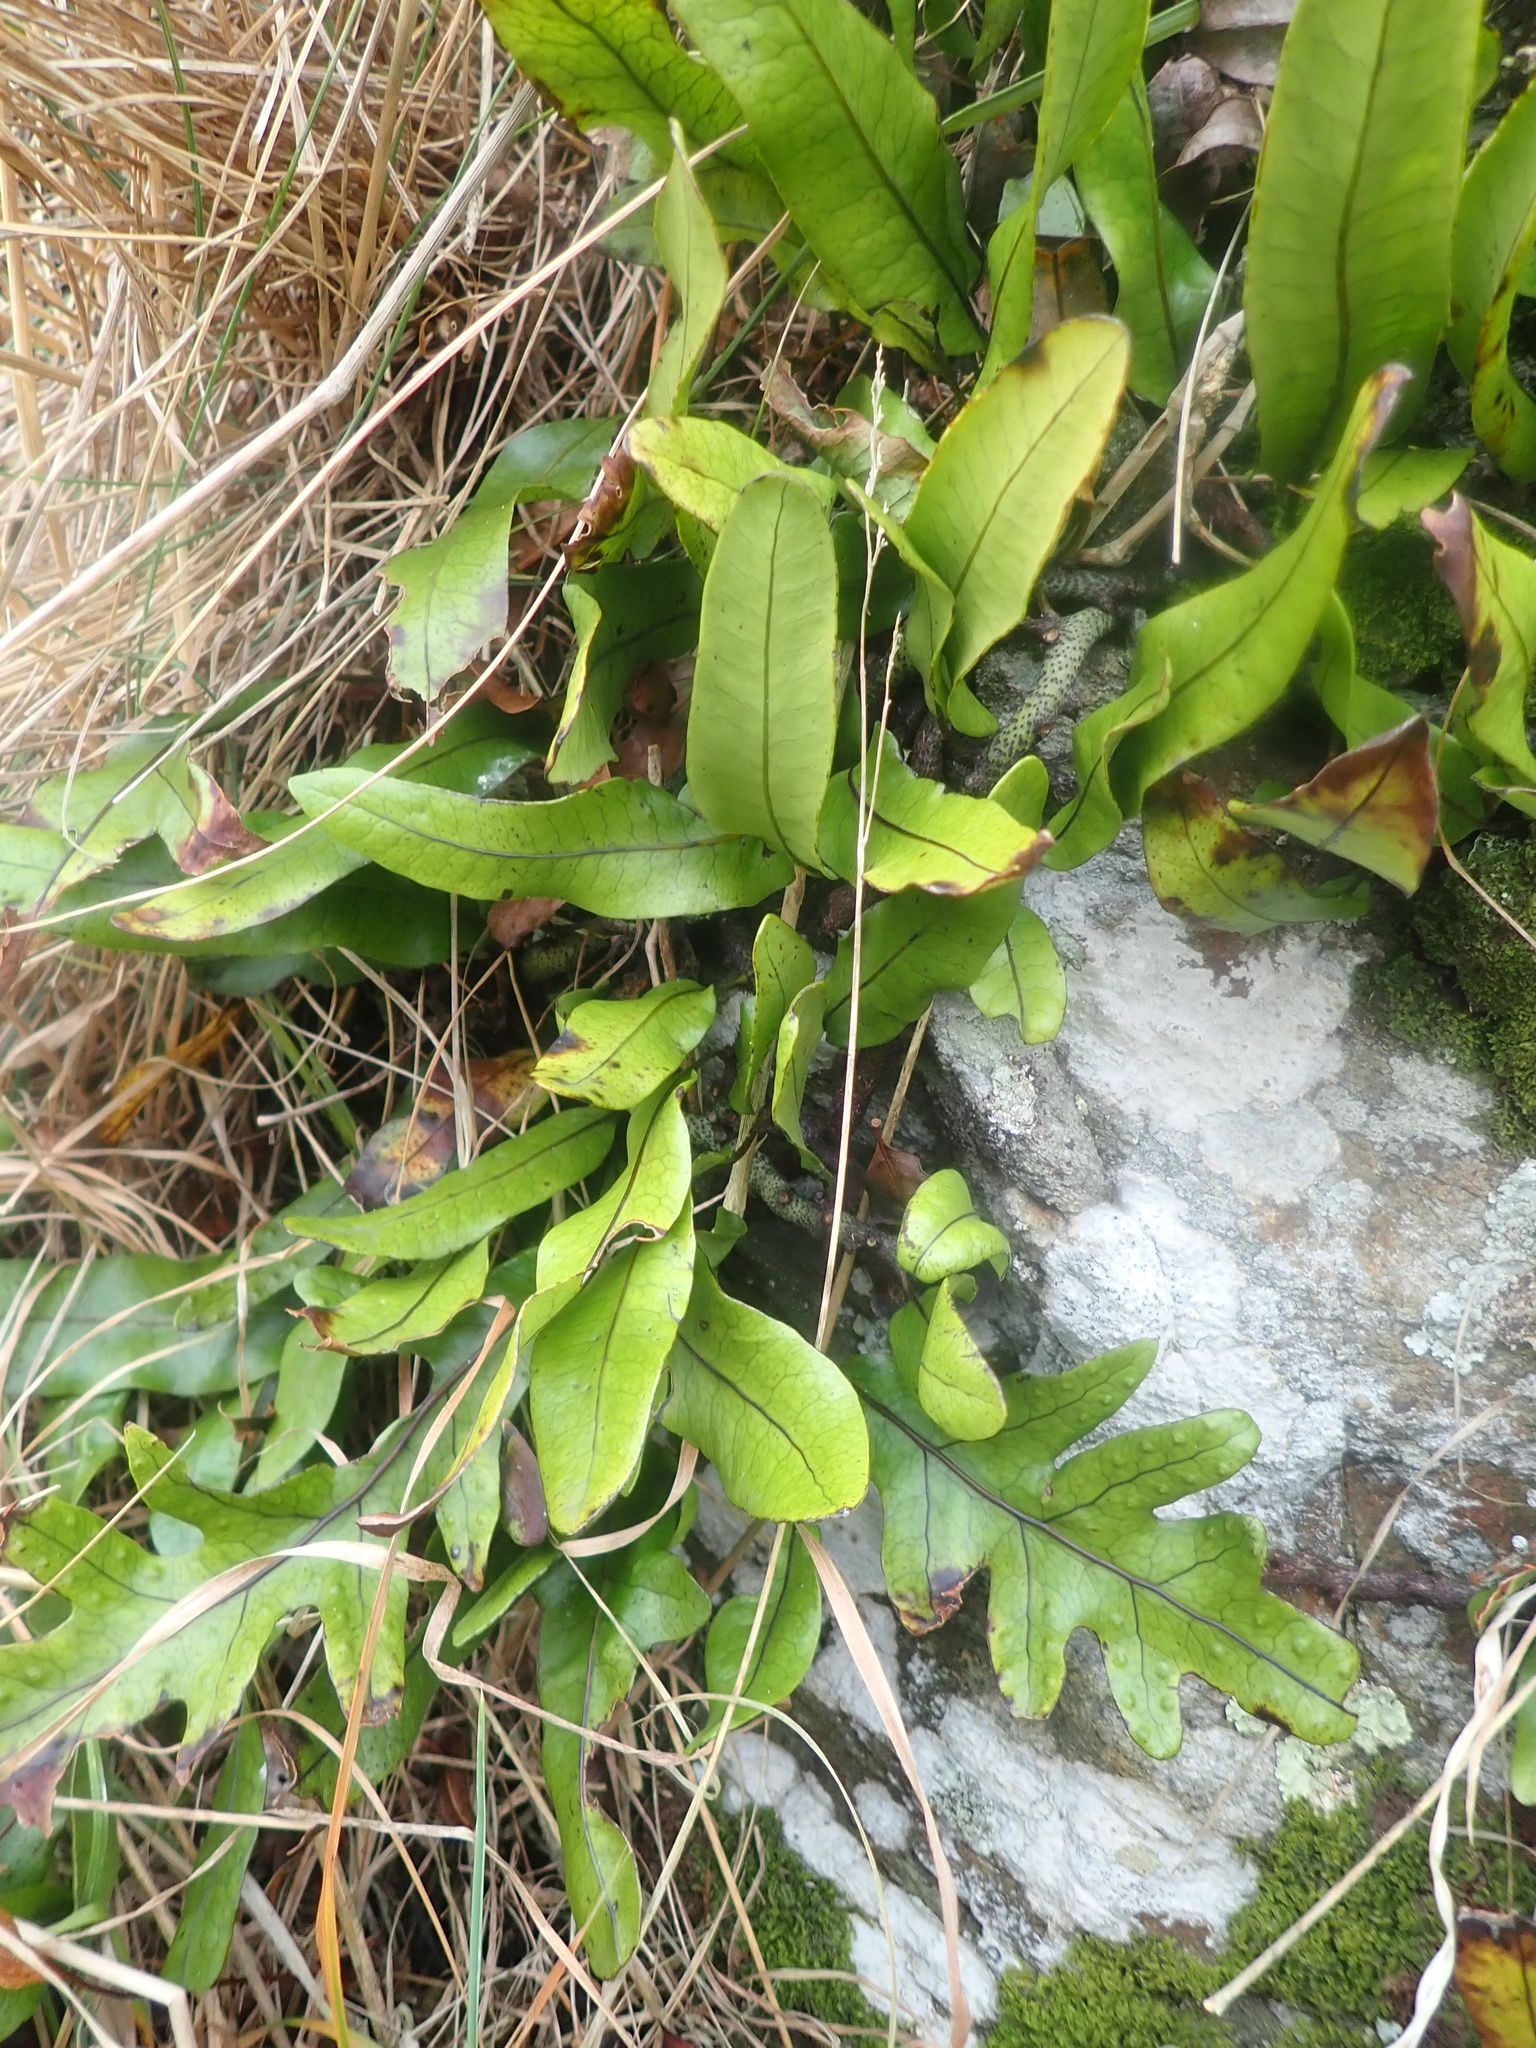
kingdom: Plantae
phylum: Tracheophyta
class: Polypodiopsida
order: Polypodiales
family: Polypodiaceae
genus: Lecanopteris
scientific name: Lecanopteris pustulata
